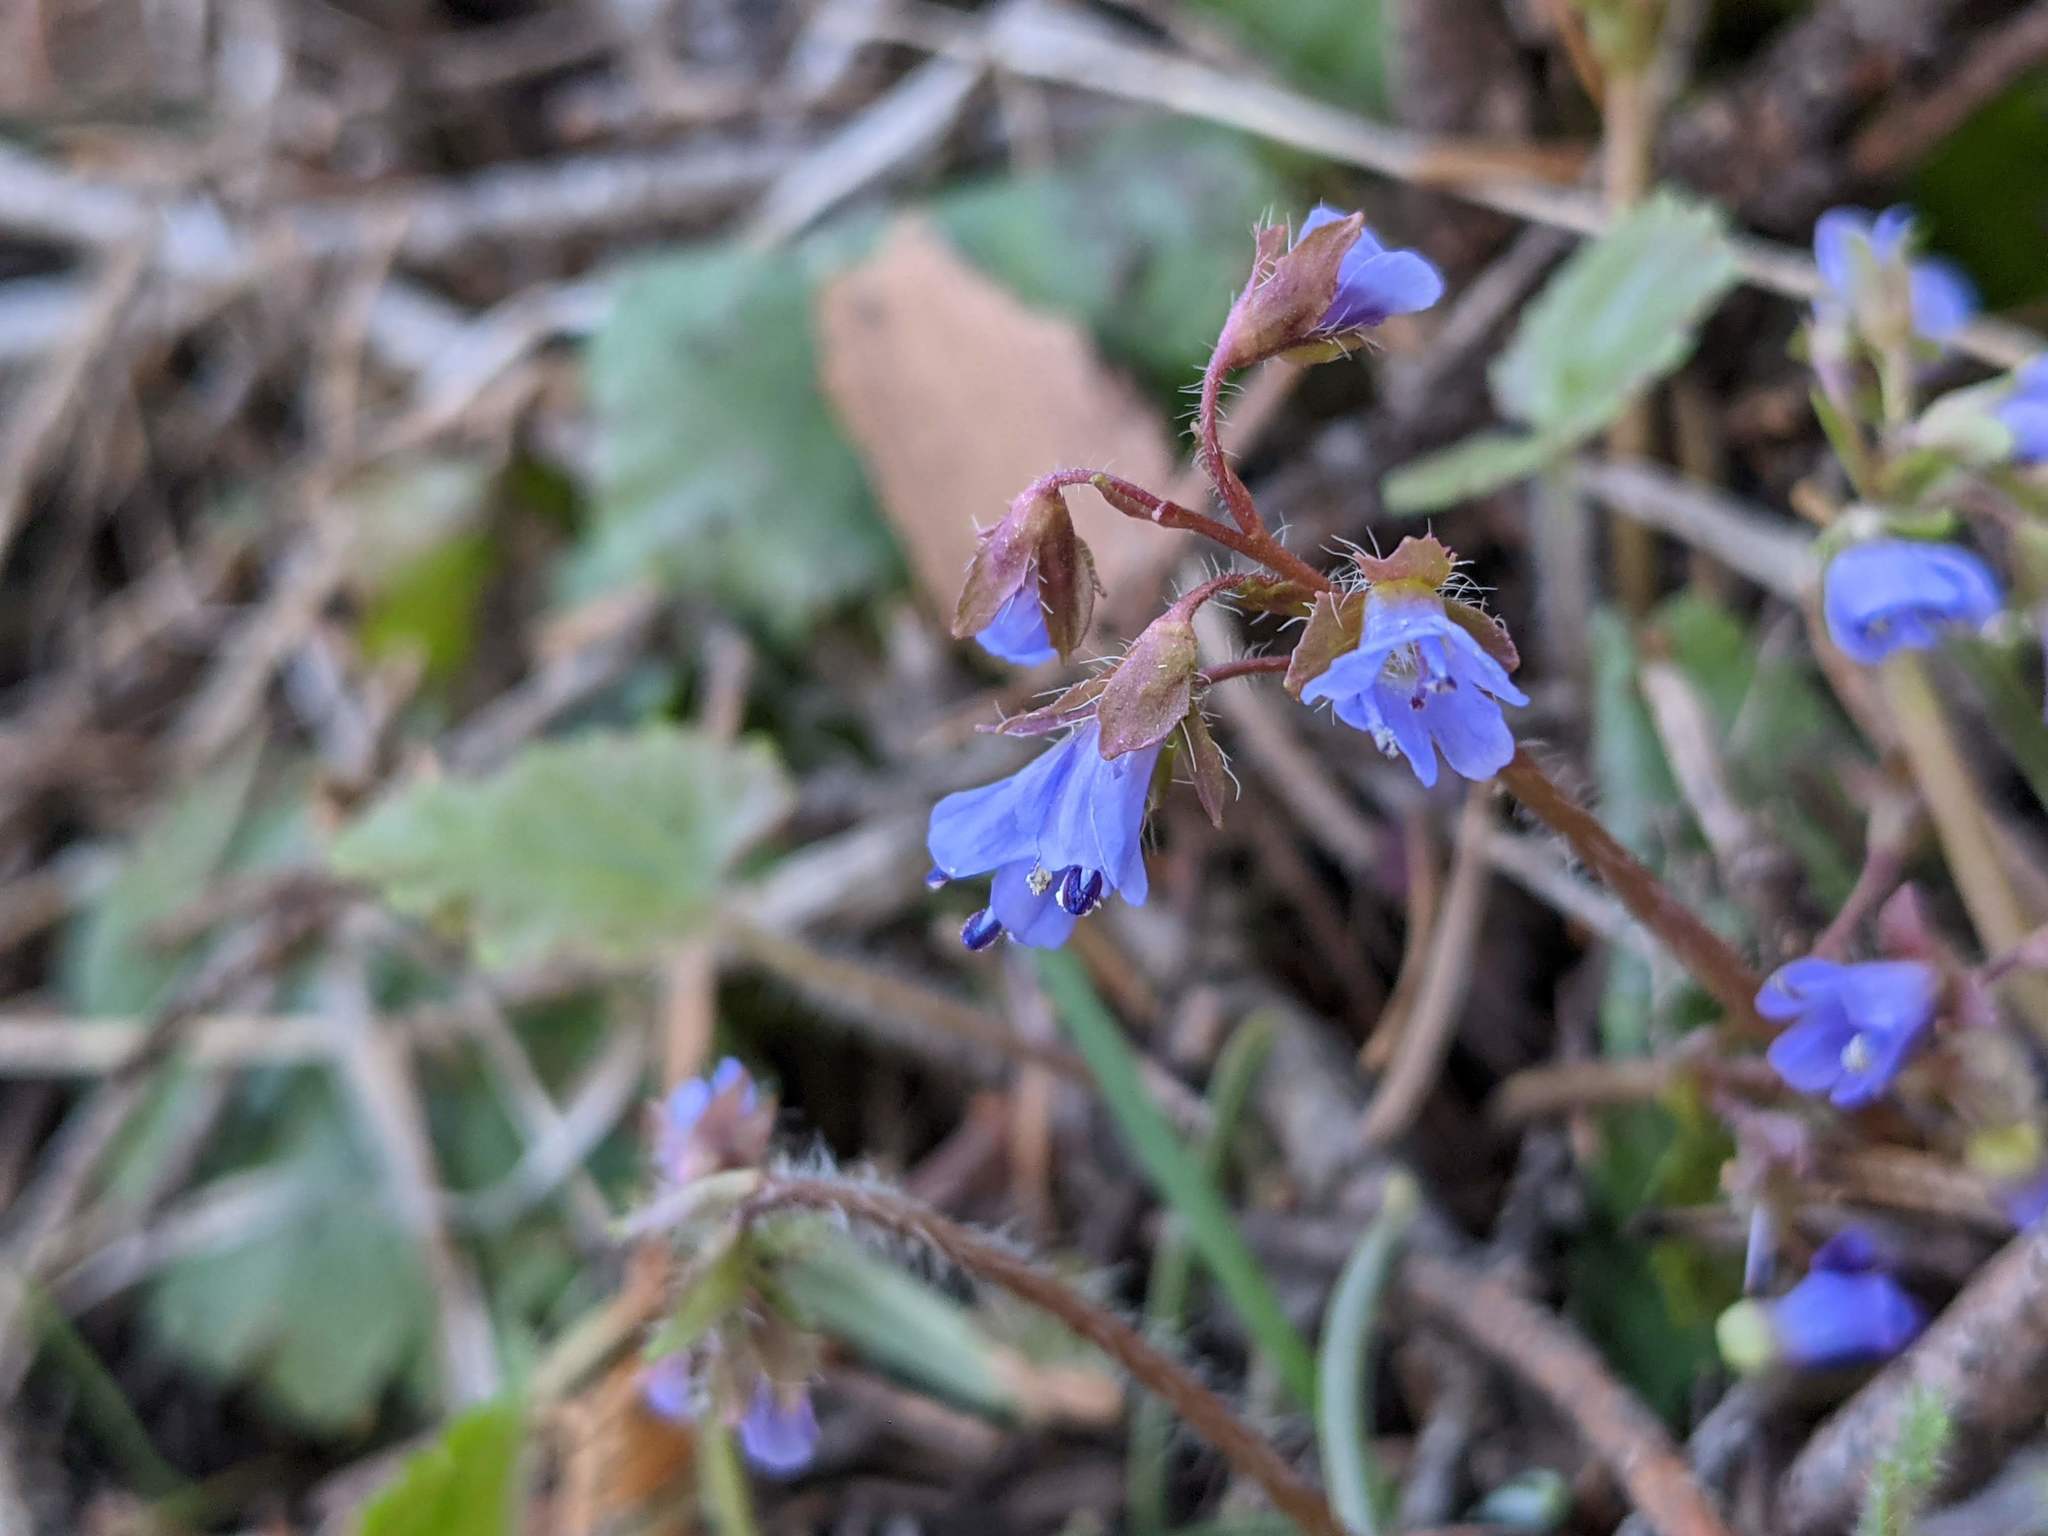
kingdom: Plantae
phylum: Tracheophyta
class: Magnoliopsida
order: Lamiales
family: Plantaginaceae
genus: Synthyris
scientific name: Synthyris reniformis
